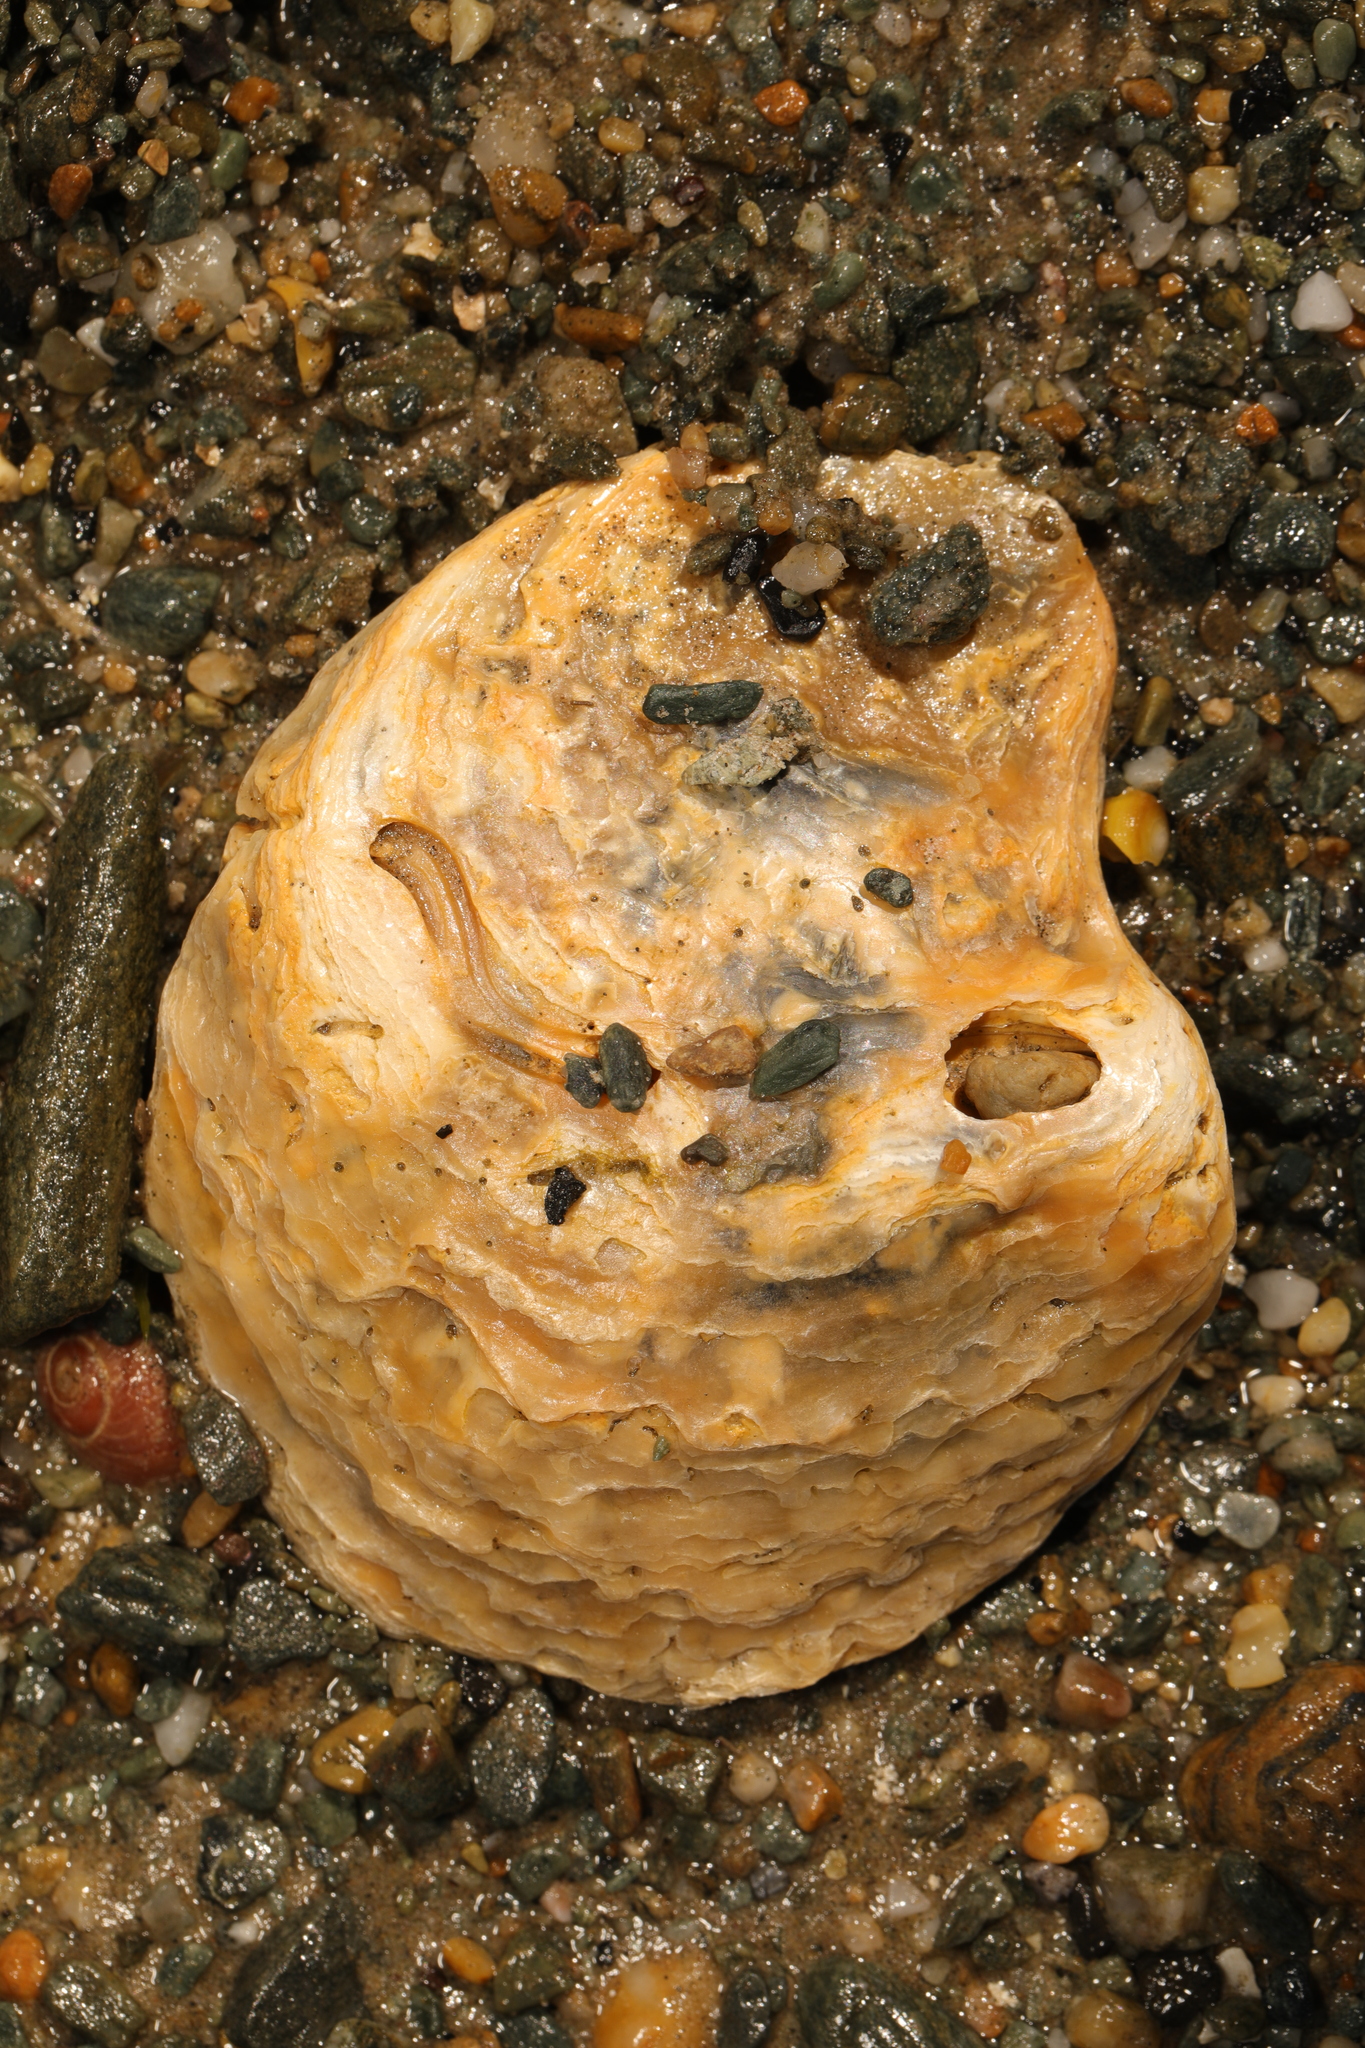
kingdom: Animalia
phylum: Mollusca
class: Bivalvia
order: Ostreida
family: Ostreidae
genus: Ostrea
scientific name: Ostrea edulis
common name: Flat oyster
